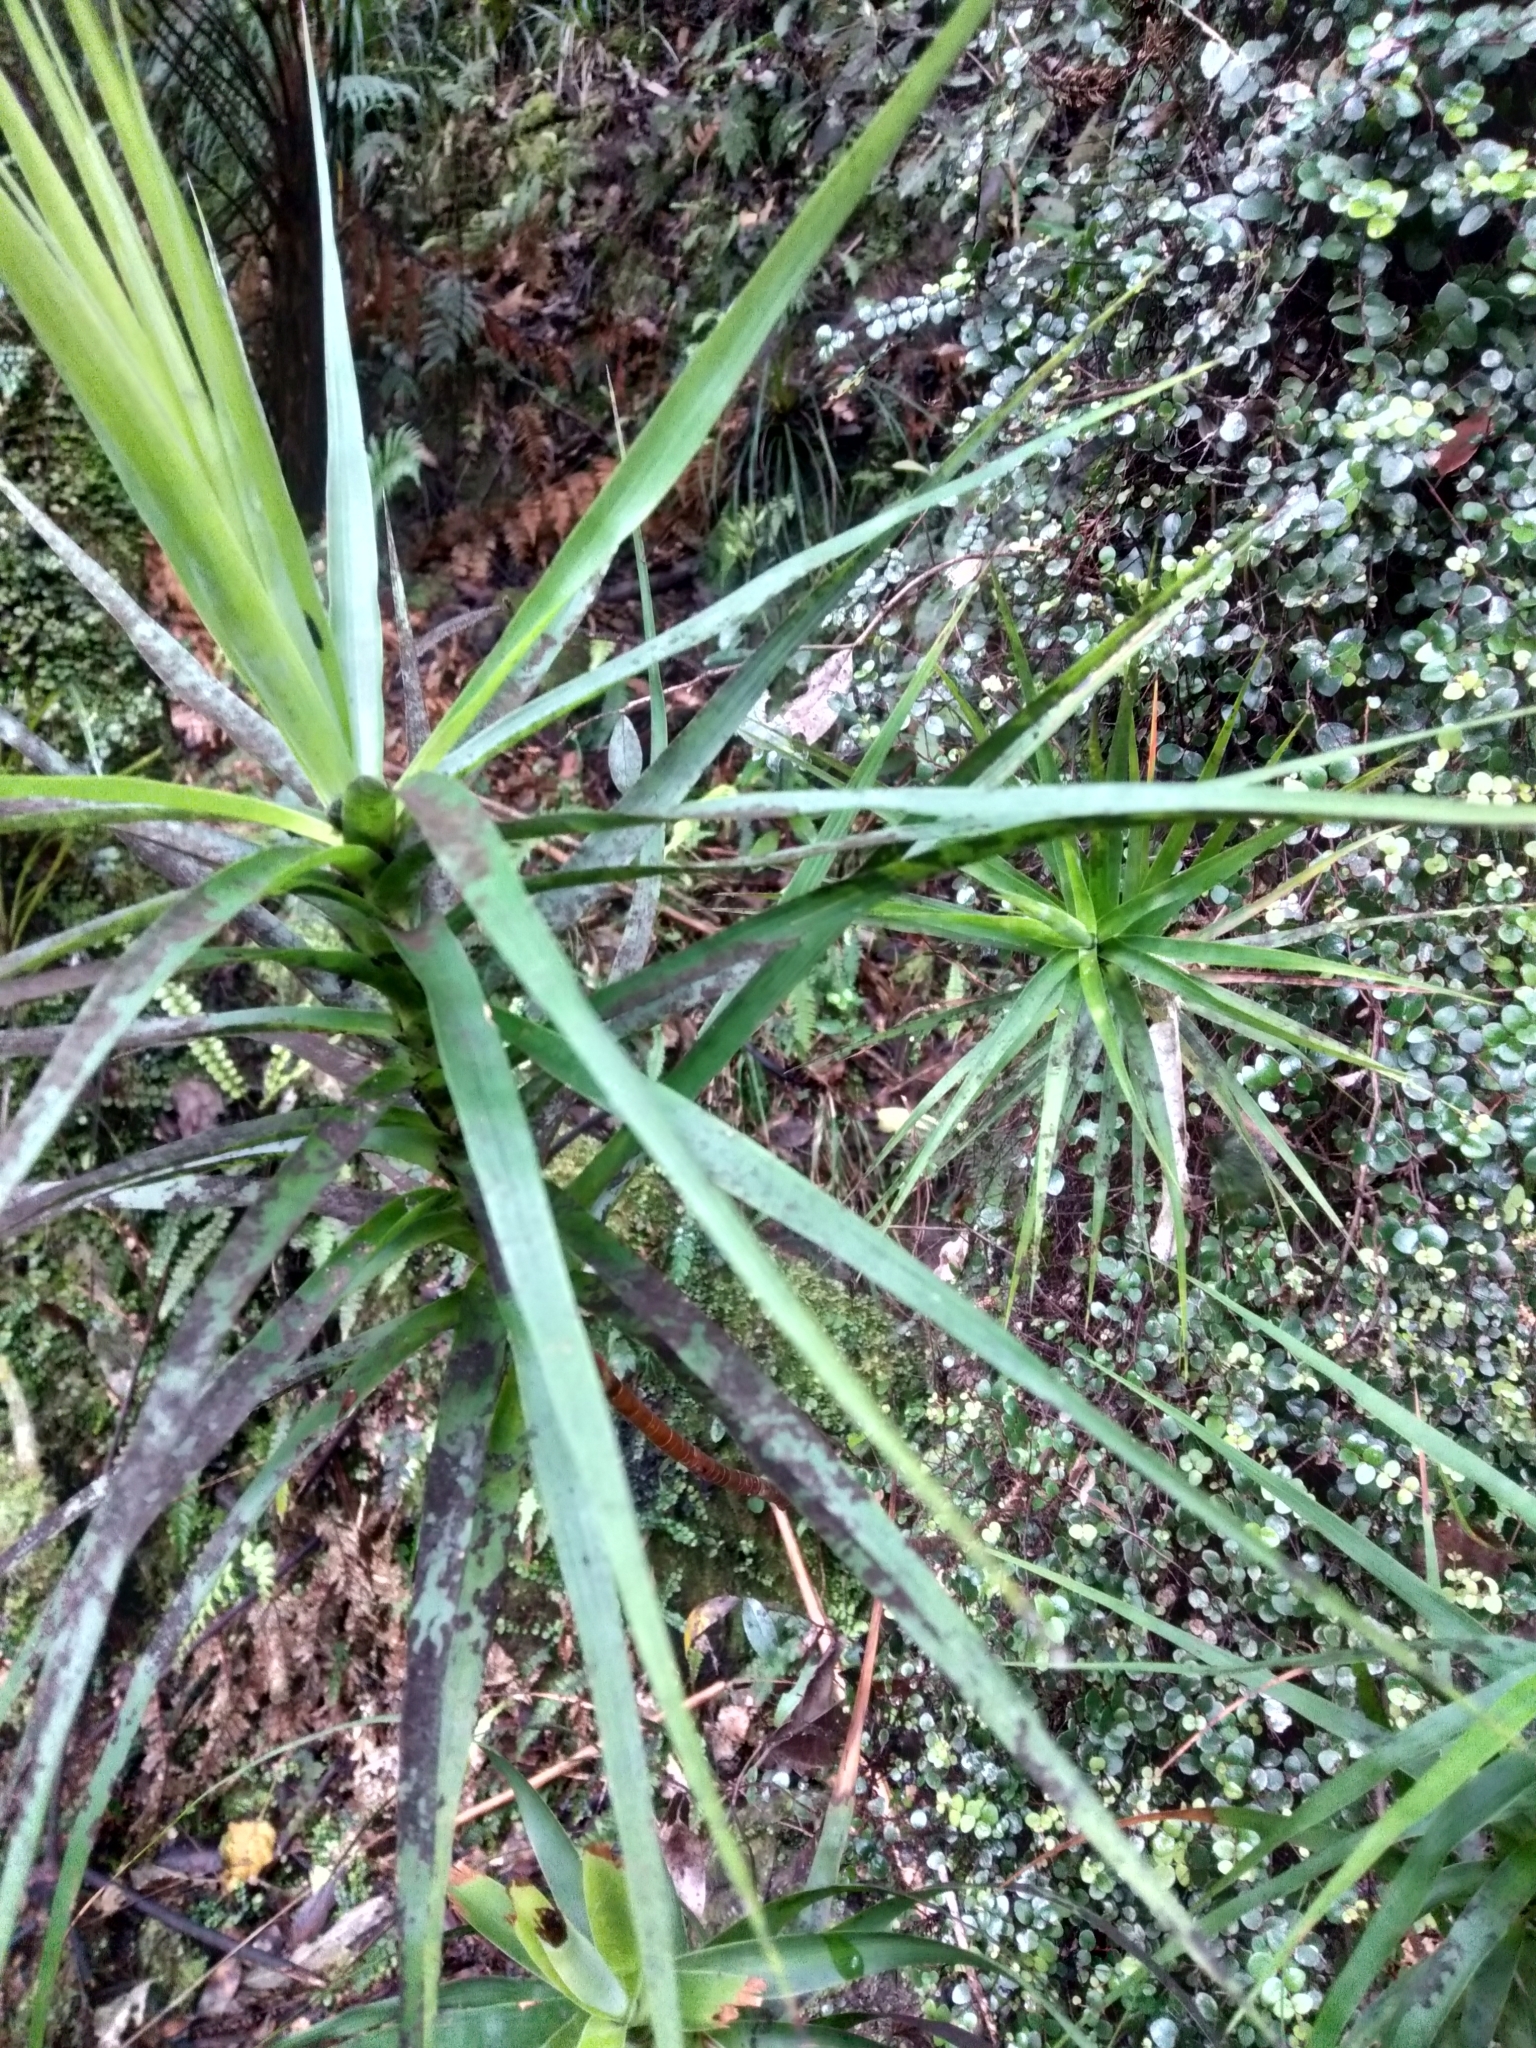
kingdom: Plantae
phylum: Tracheophyta
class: Magnoliopsida
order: Ericales
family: Ericaceae
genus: Dracophyllum
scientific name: Dracophyllum strictum
